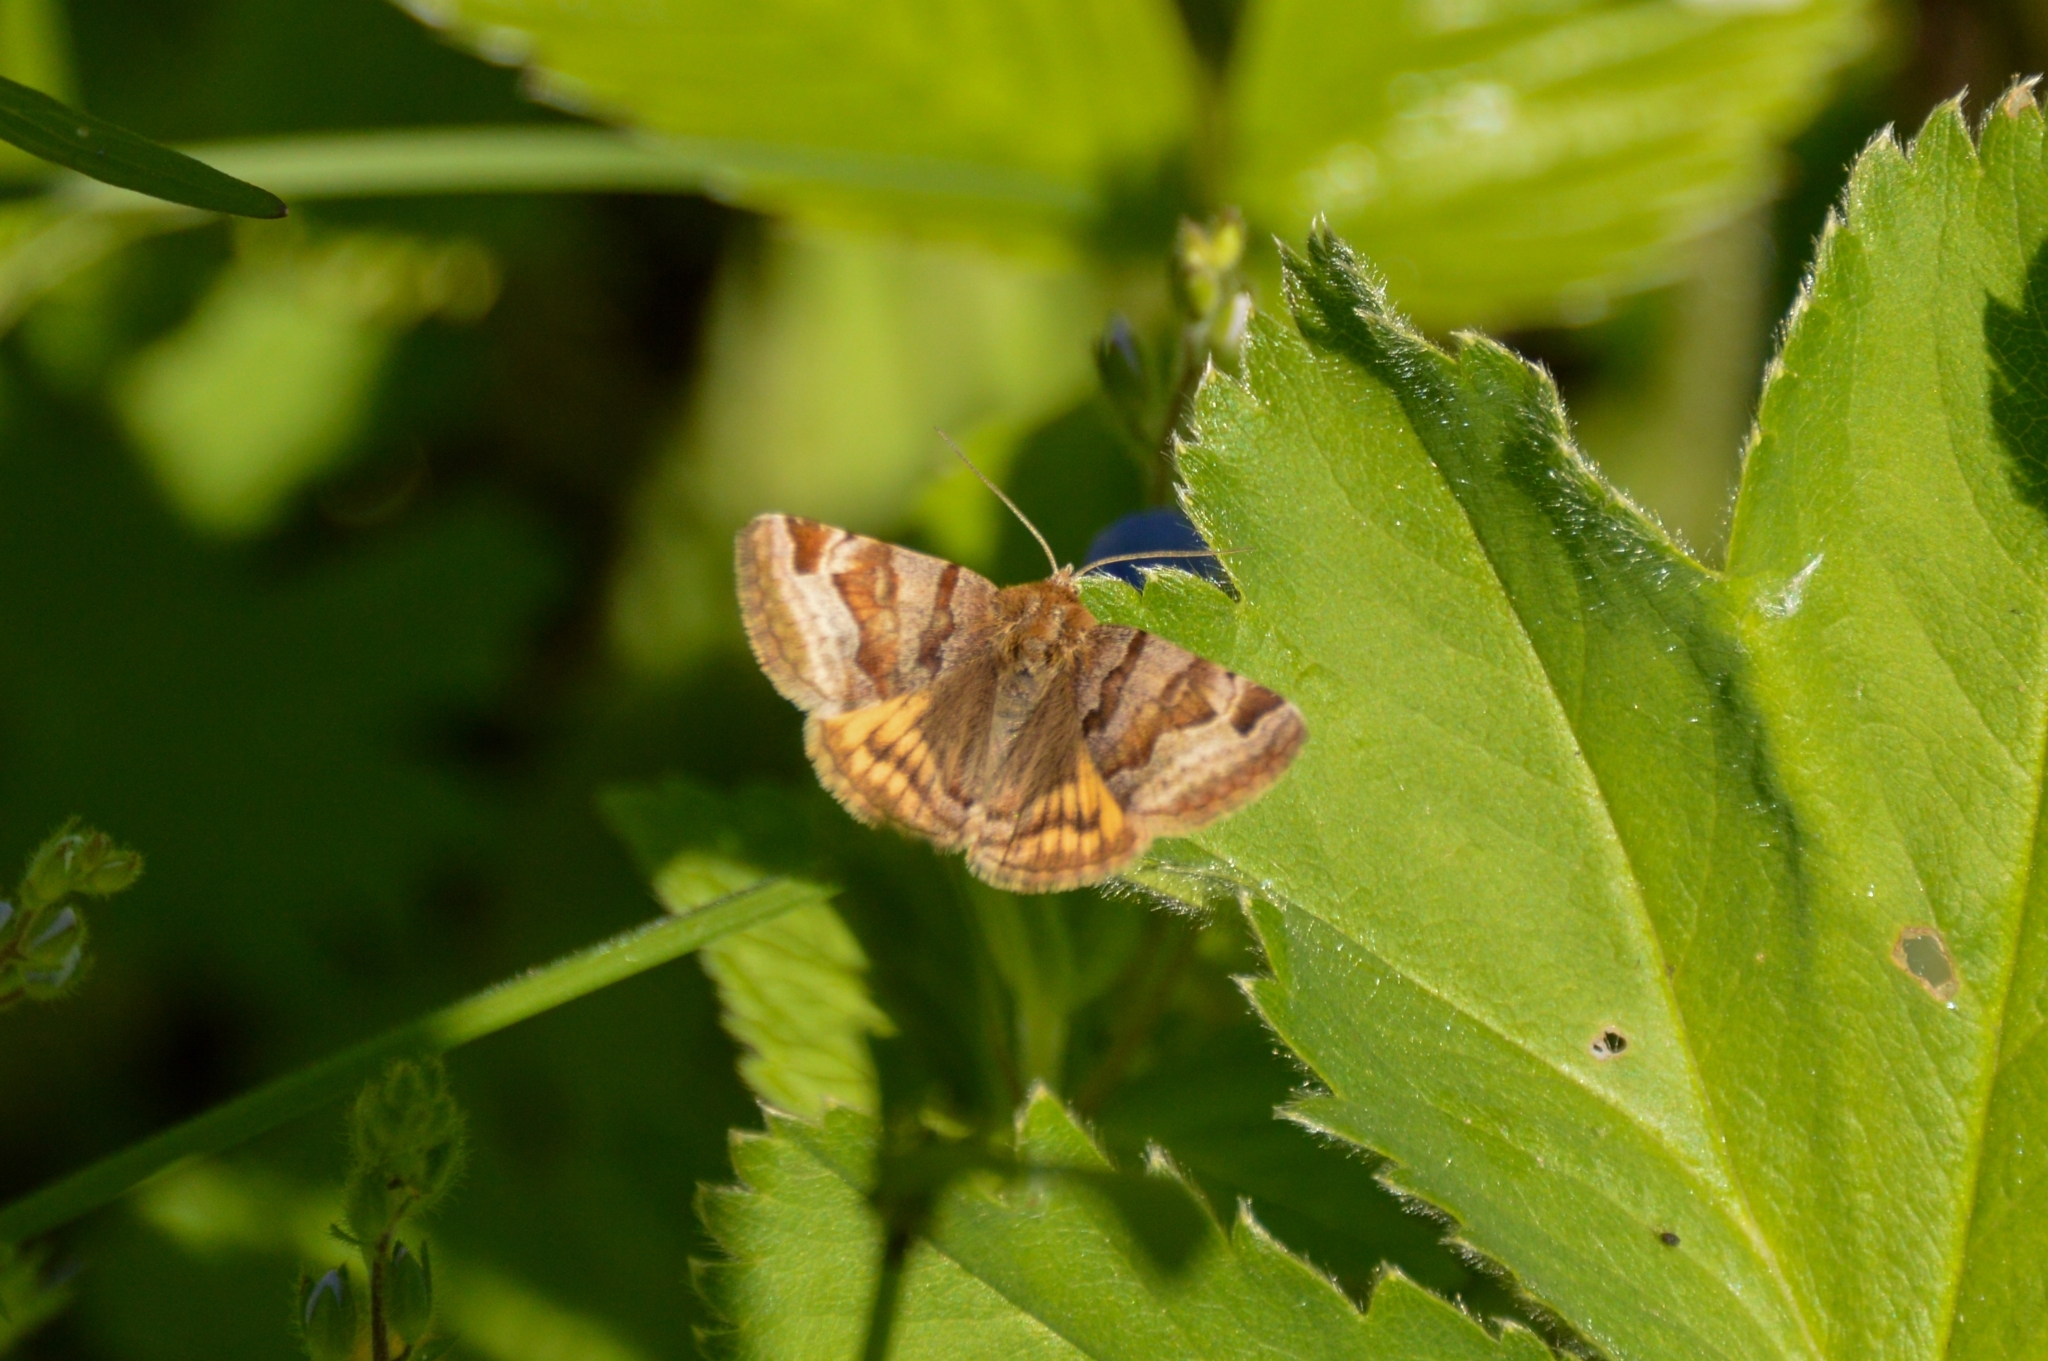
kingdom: Animalia
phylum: Arthropoda
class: Insecta
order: Lepidoptera
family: Erebidae
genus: Euclidia
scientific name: Euclidia glyphica
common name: Burnet companion
